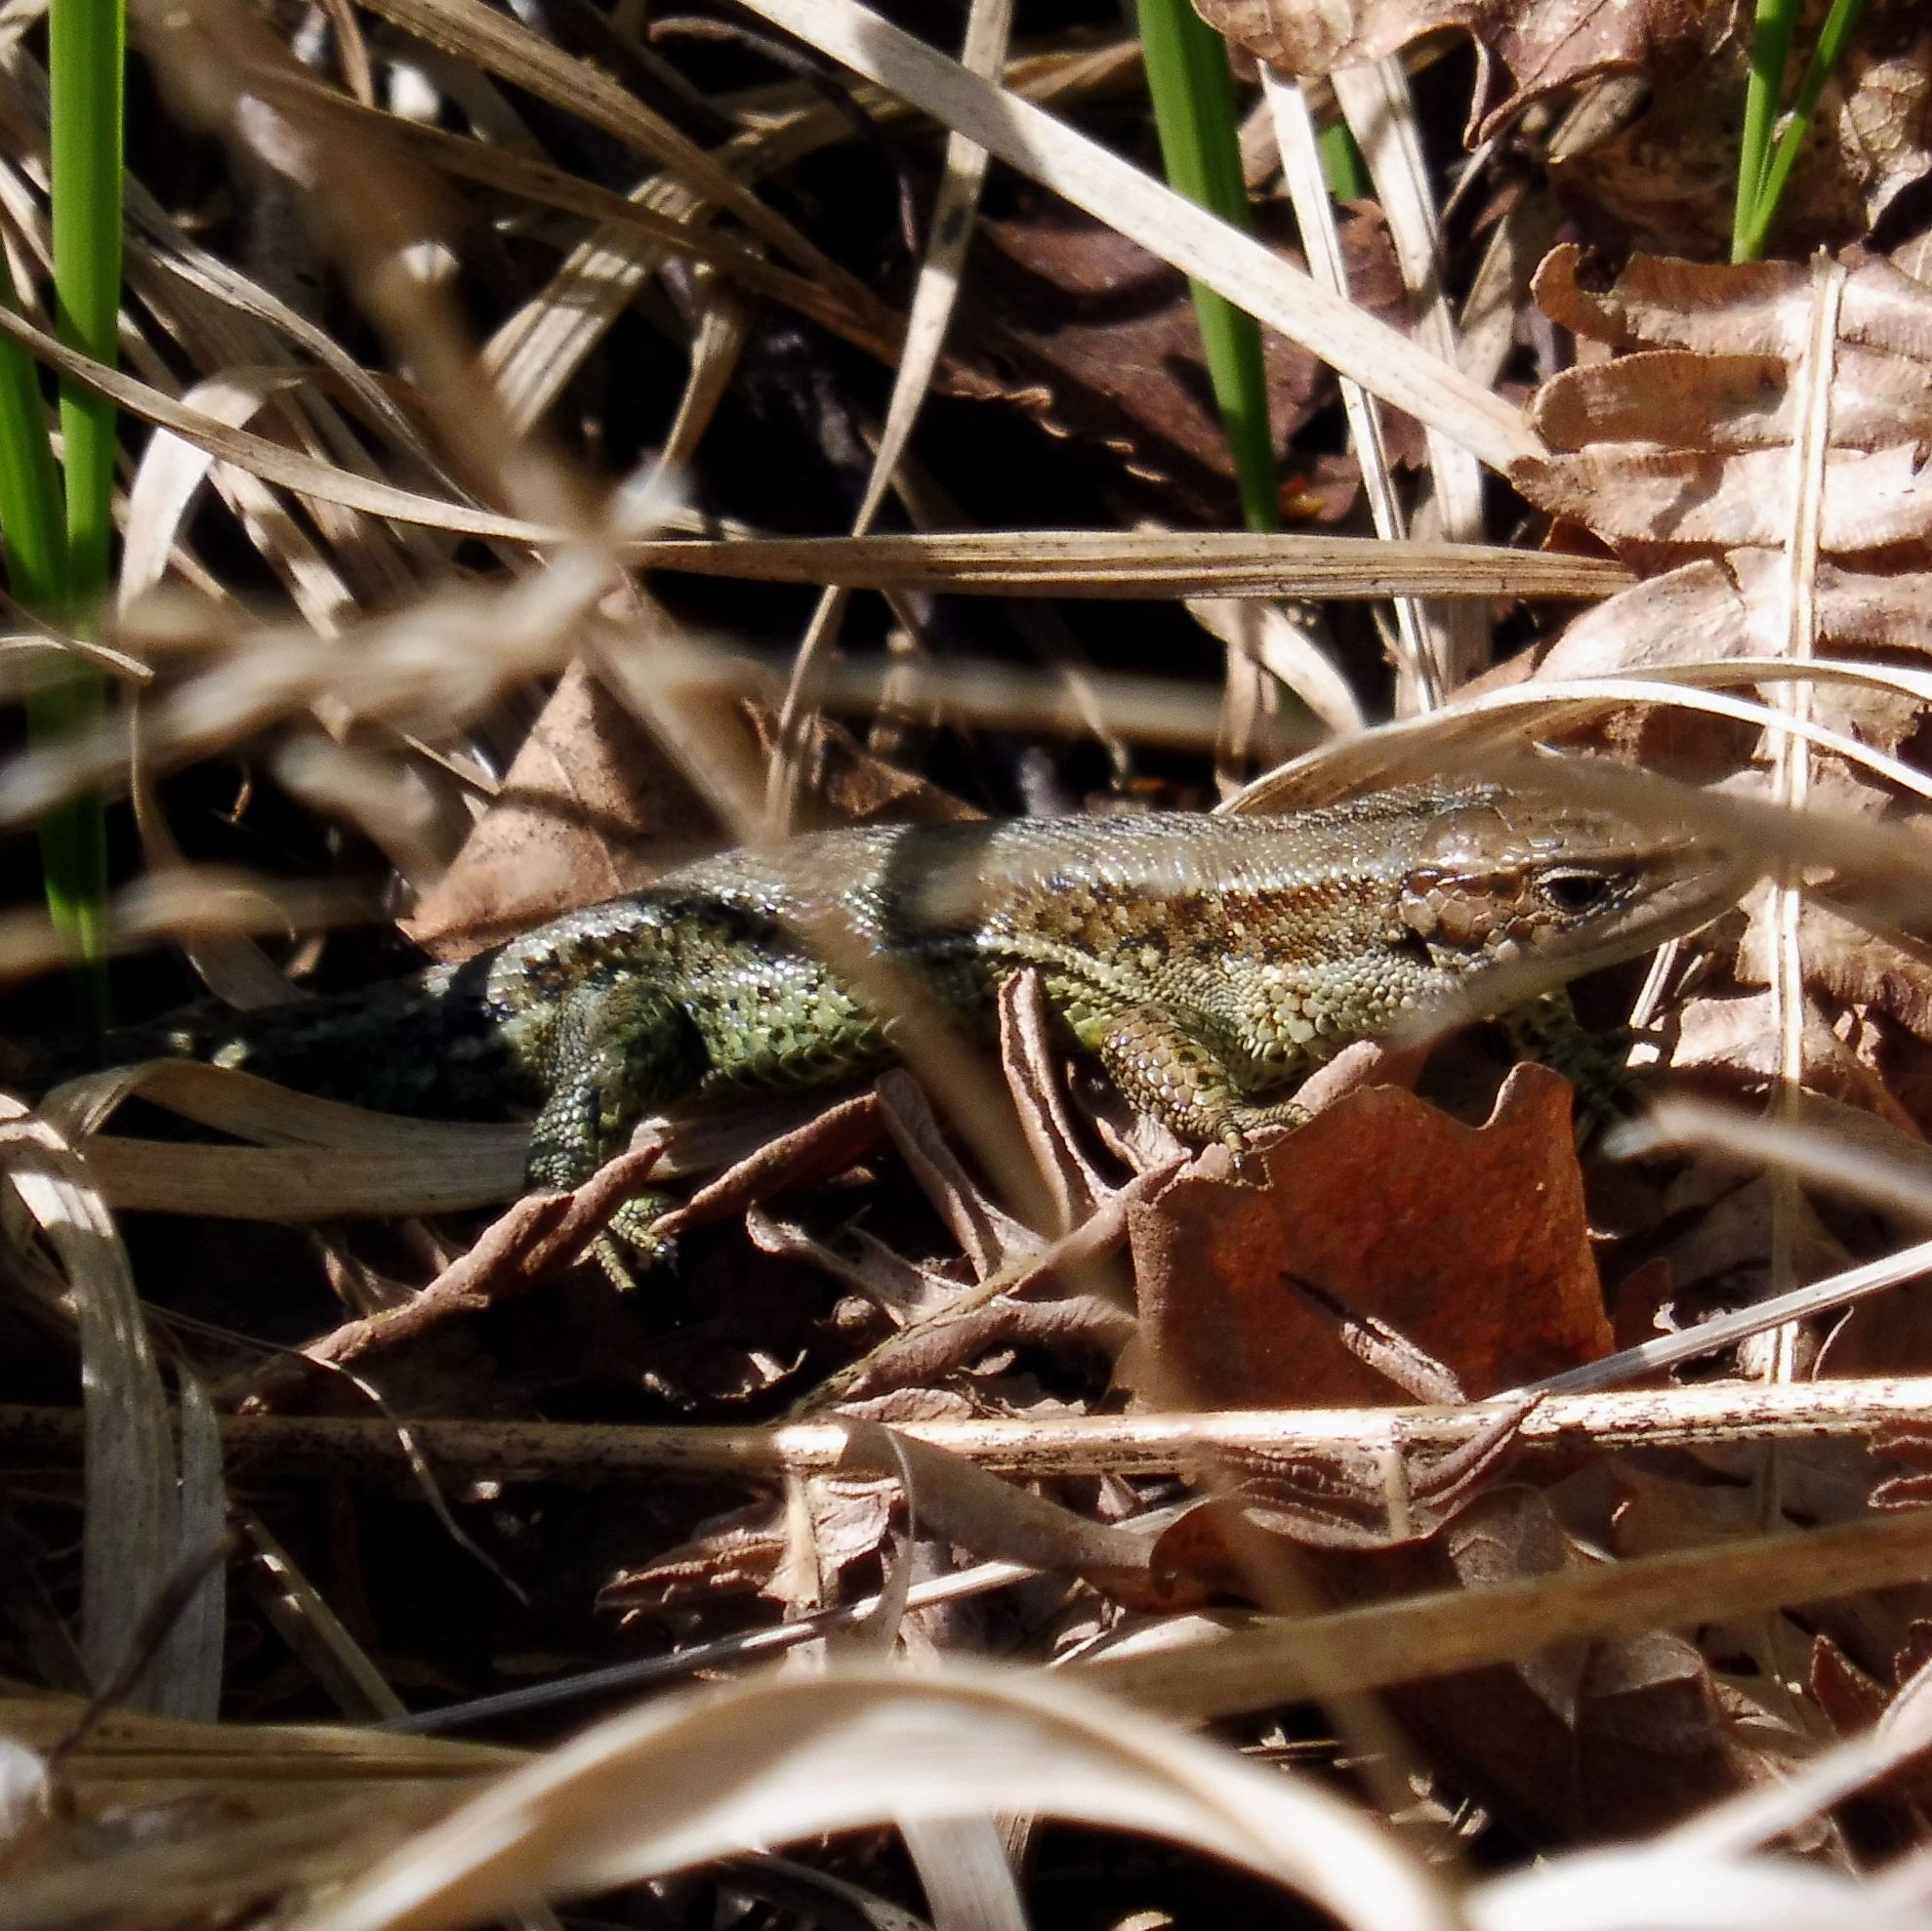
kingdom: Animalia
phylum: Chordata
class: Squamata
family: Lacertidae
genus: Zootoca
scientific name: Zootoca vivipara
